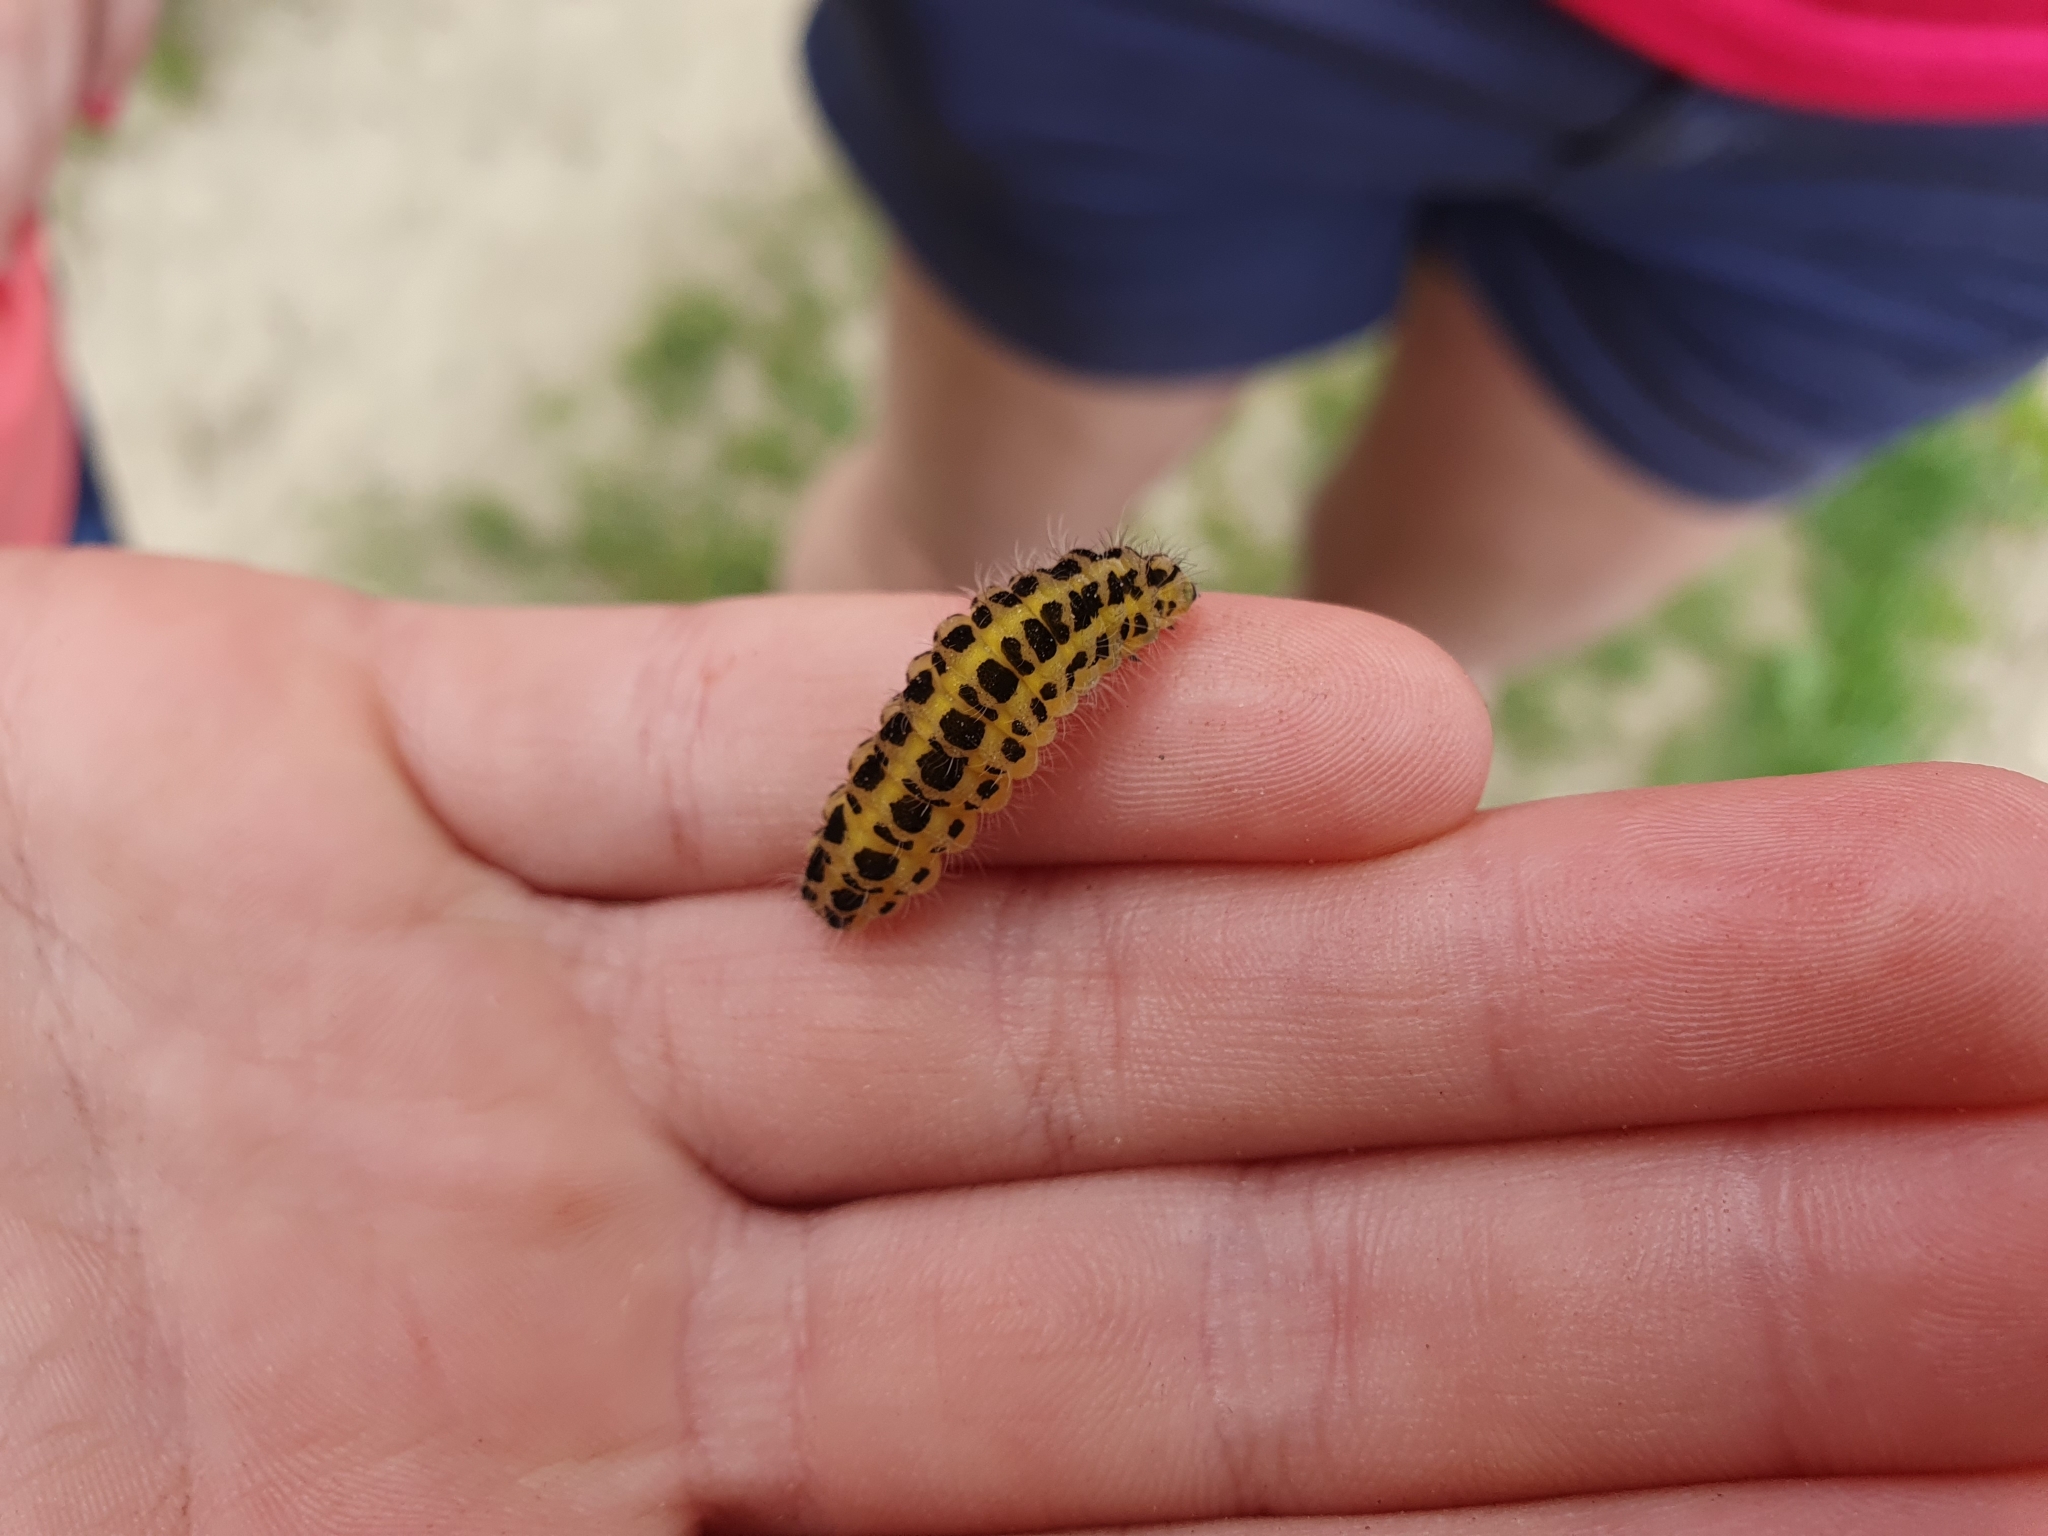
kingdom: Animalia
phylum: Arthropoda
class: Insecta
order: Lepidoptera
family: Zygaenidae
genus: Zygaena
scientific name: Zygaena filipendulae
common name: Six-spot burnet
